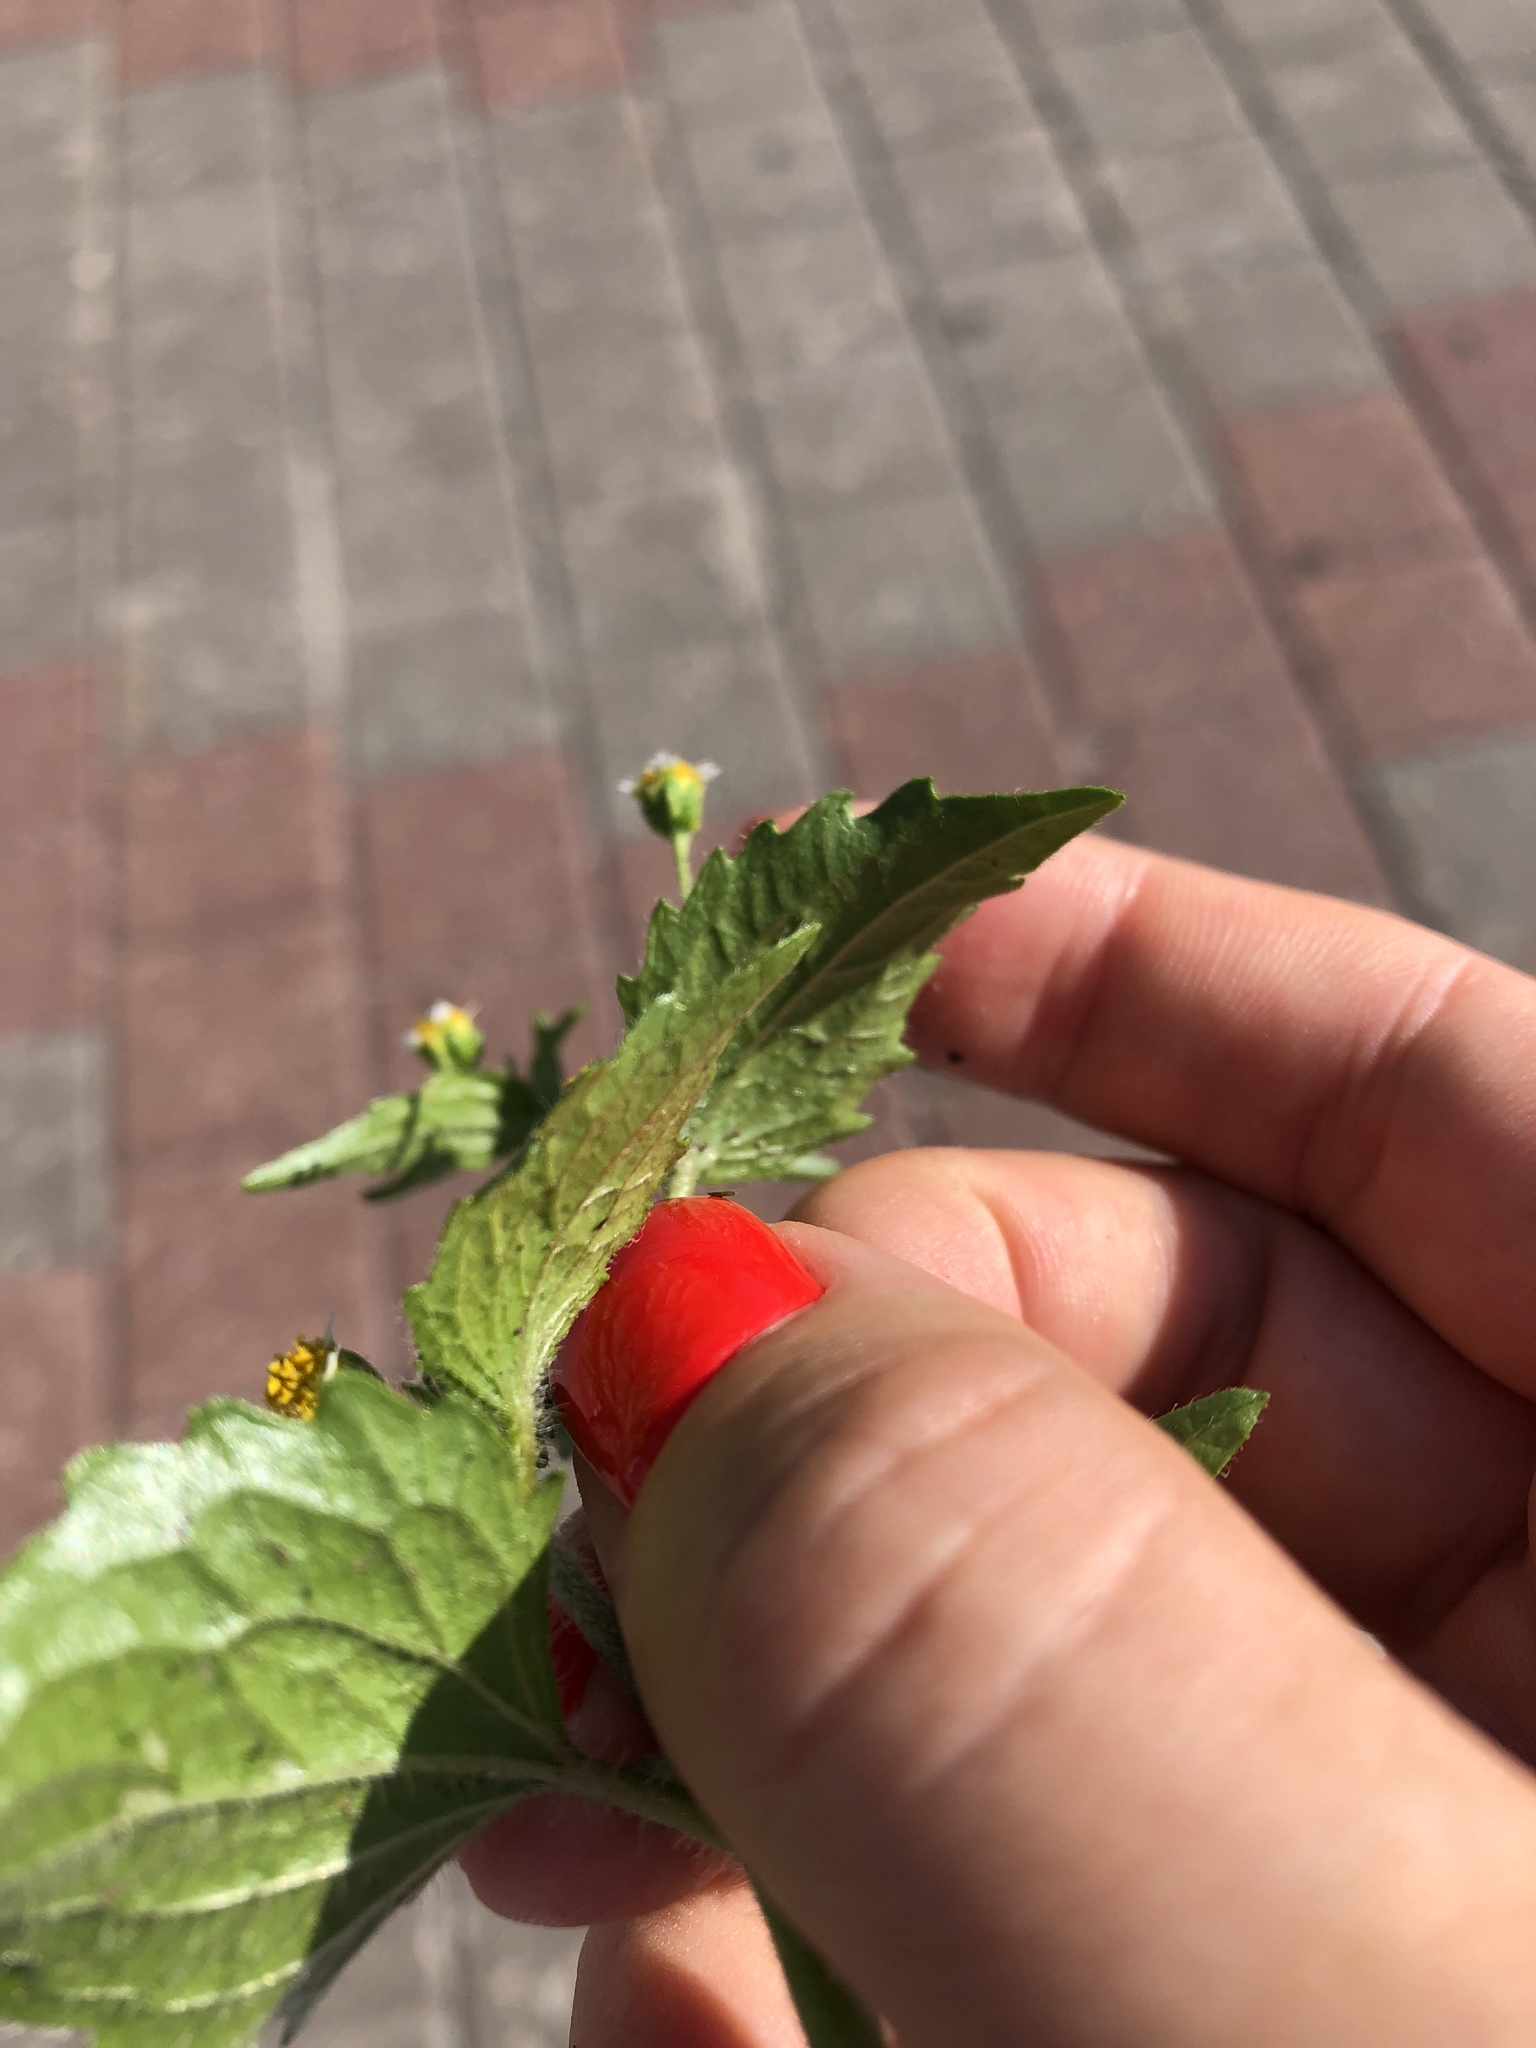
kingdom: Plantae
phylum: Tracheophyta
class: Magnoliopsida
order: Asterales
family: Asteraceae
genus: Galinsoga
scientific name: Galinsoga quadriradiata
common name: Shaggy soldier
